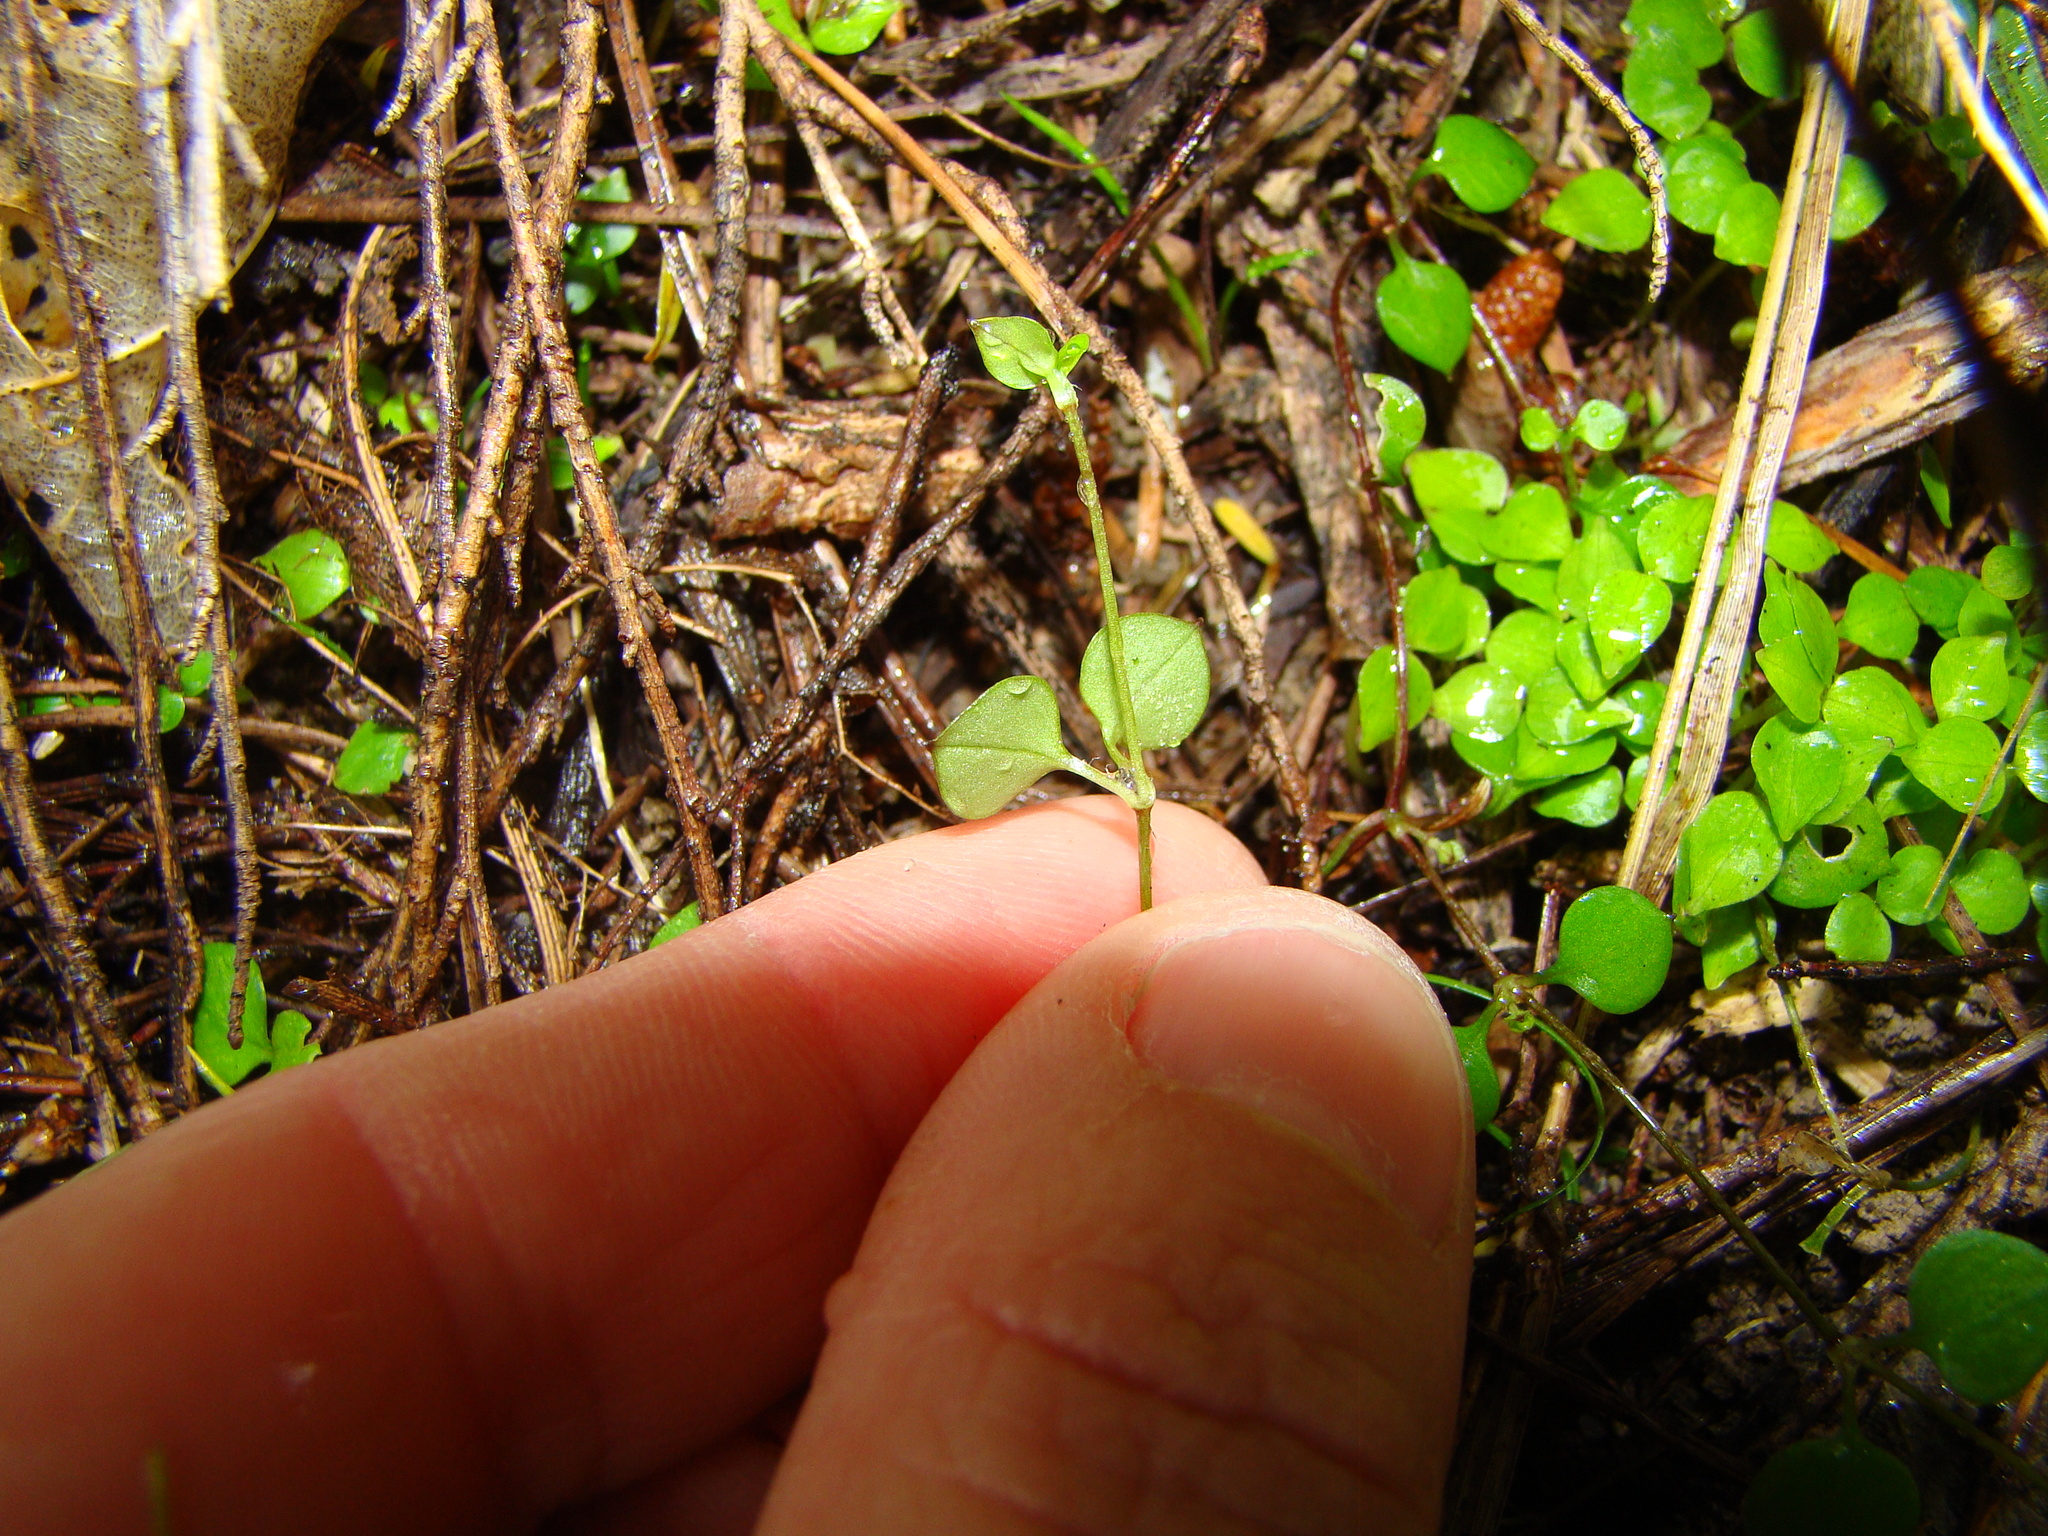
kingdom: Plantae
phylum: Tracheophyta
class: Magnoliopsida
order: Caryophyllales
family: Caryophyllaceae
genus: Stellaria
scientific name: Stellaria parviflora
